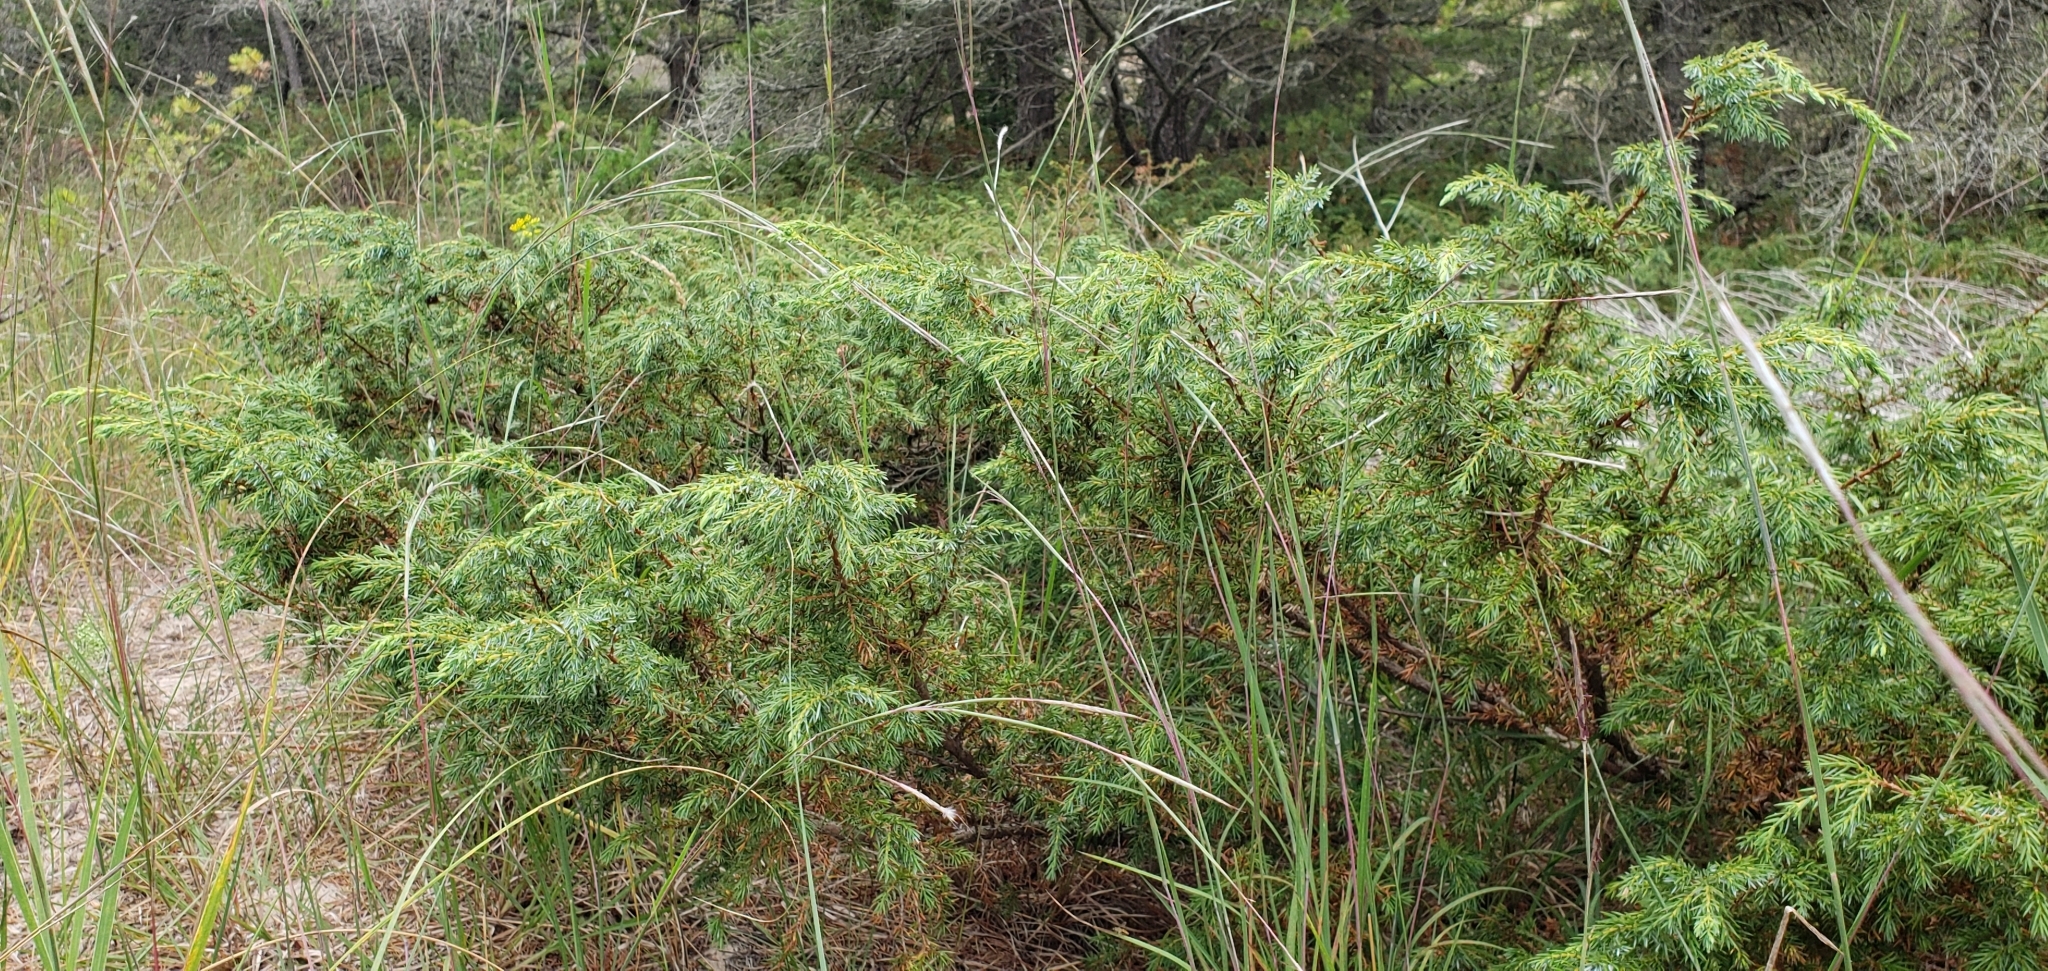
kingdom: Plantae
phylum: Tracheophyta
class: Pinopsida
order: Pinales
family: Cupressaceae
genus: Juniperus
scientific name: Juniperus communis
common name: Common juniper
